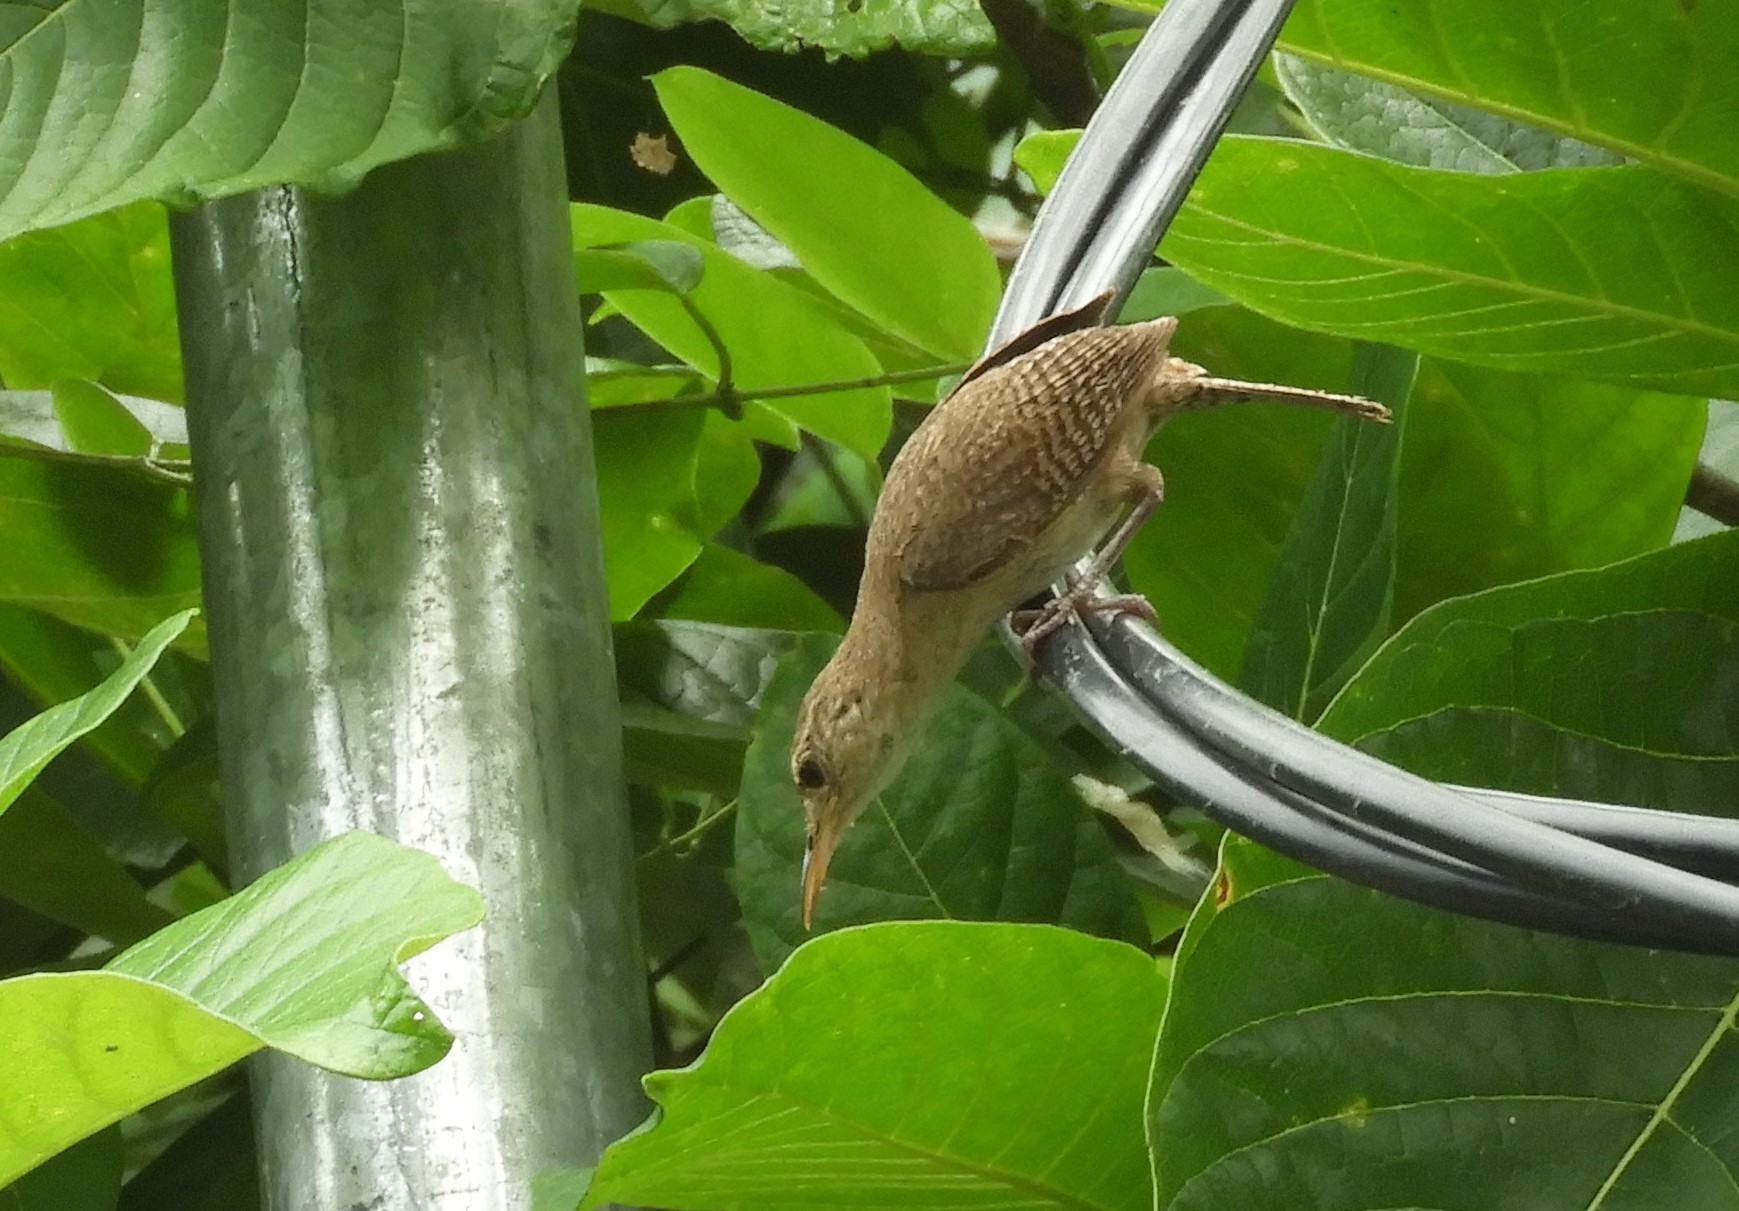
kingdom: Animalia
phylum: Chordata
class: Aves
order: Passeriformes
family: Troglodytidae
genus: Troglodytes
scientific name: Troglodytes aedon
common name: House wren
